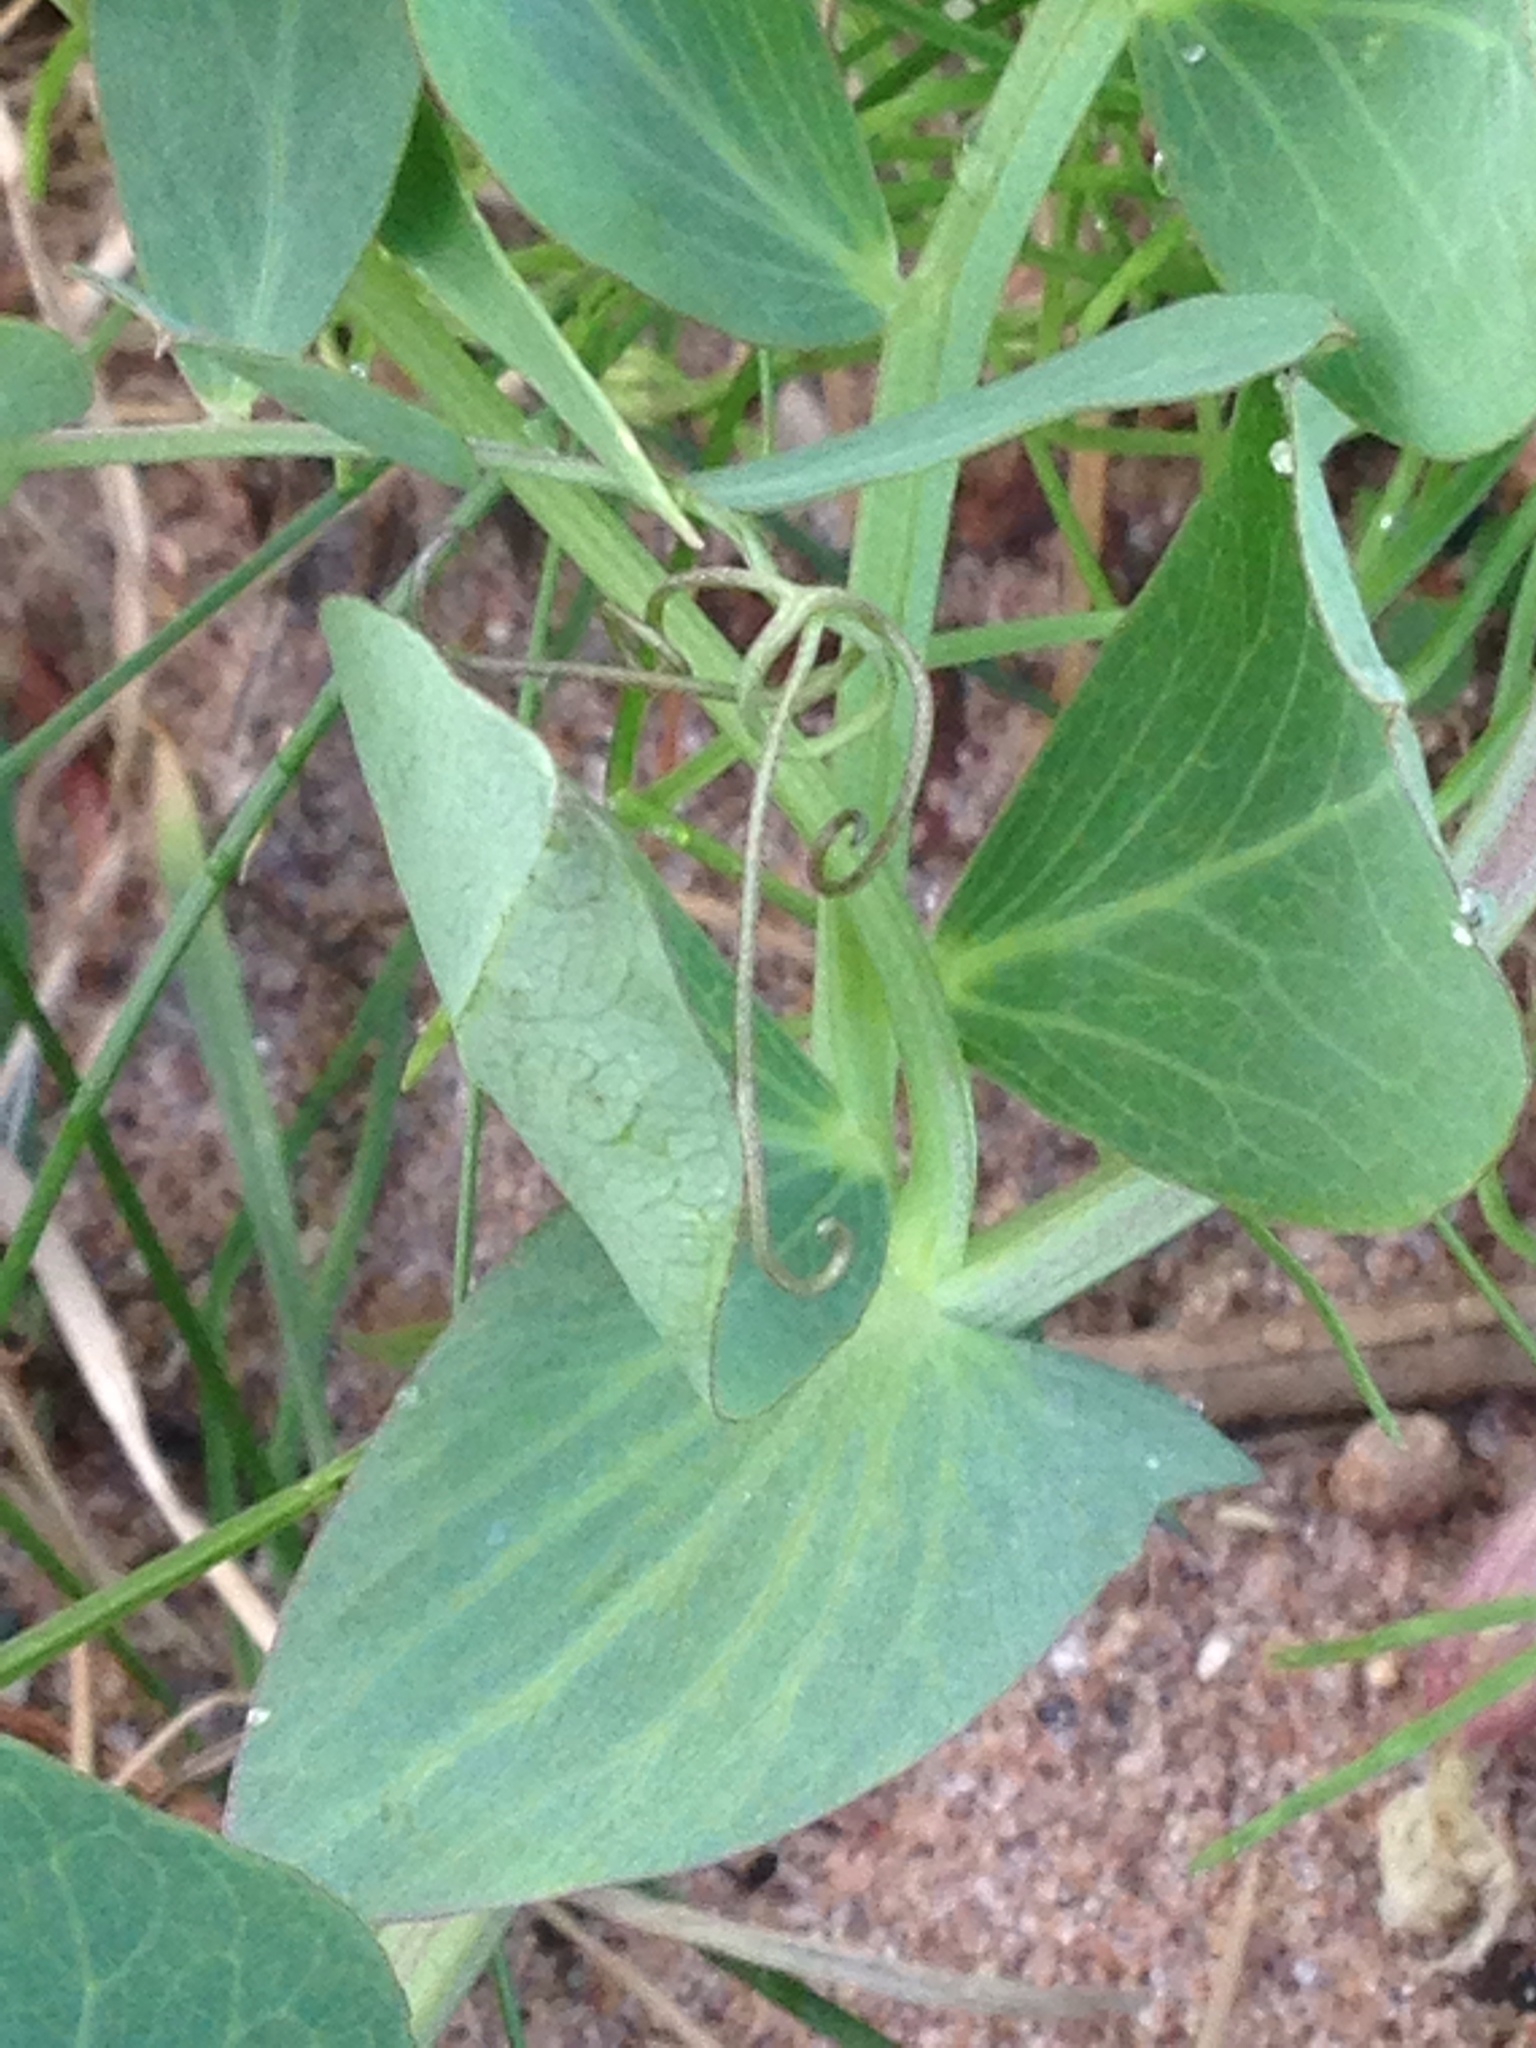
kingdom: Plantae
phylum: Tracheophyta
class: Magnoliopsida
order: Fabales
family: Fabaceae
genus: Lathyrus
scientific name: Lathyrus japonicus
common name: Sea pea
